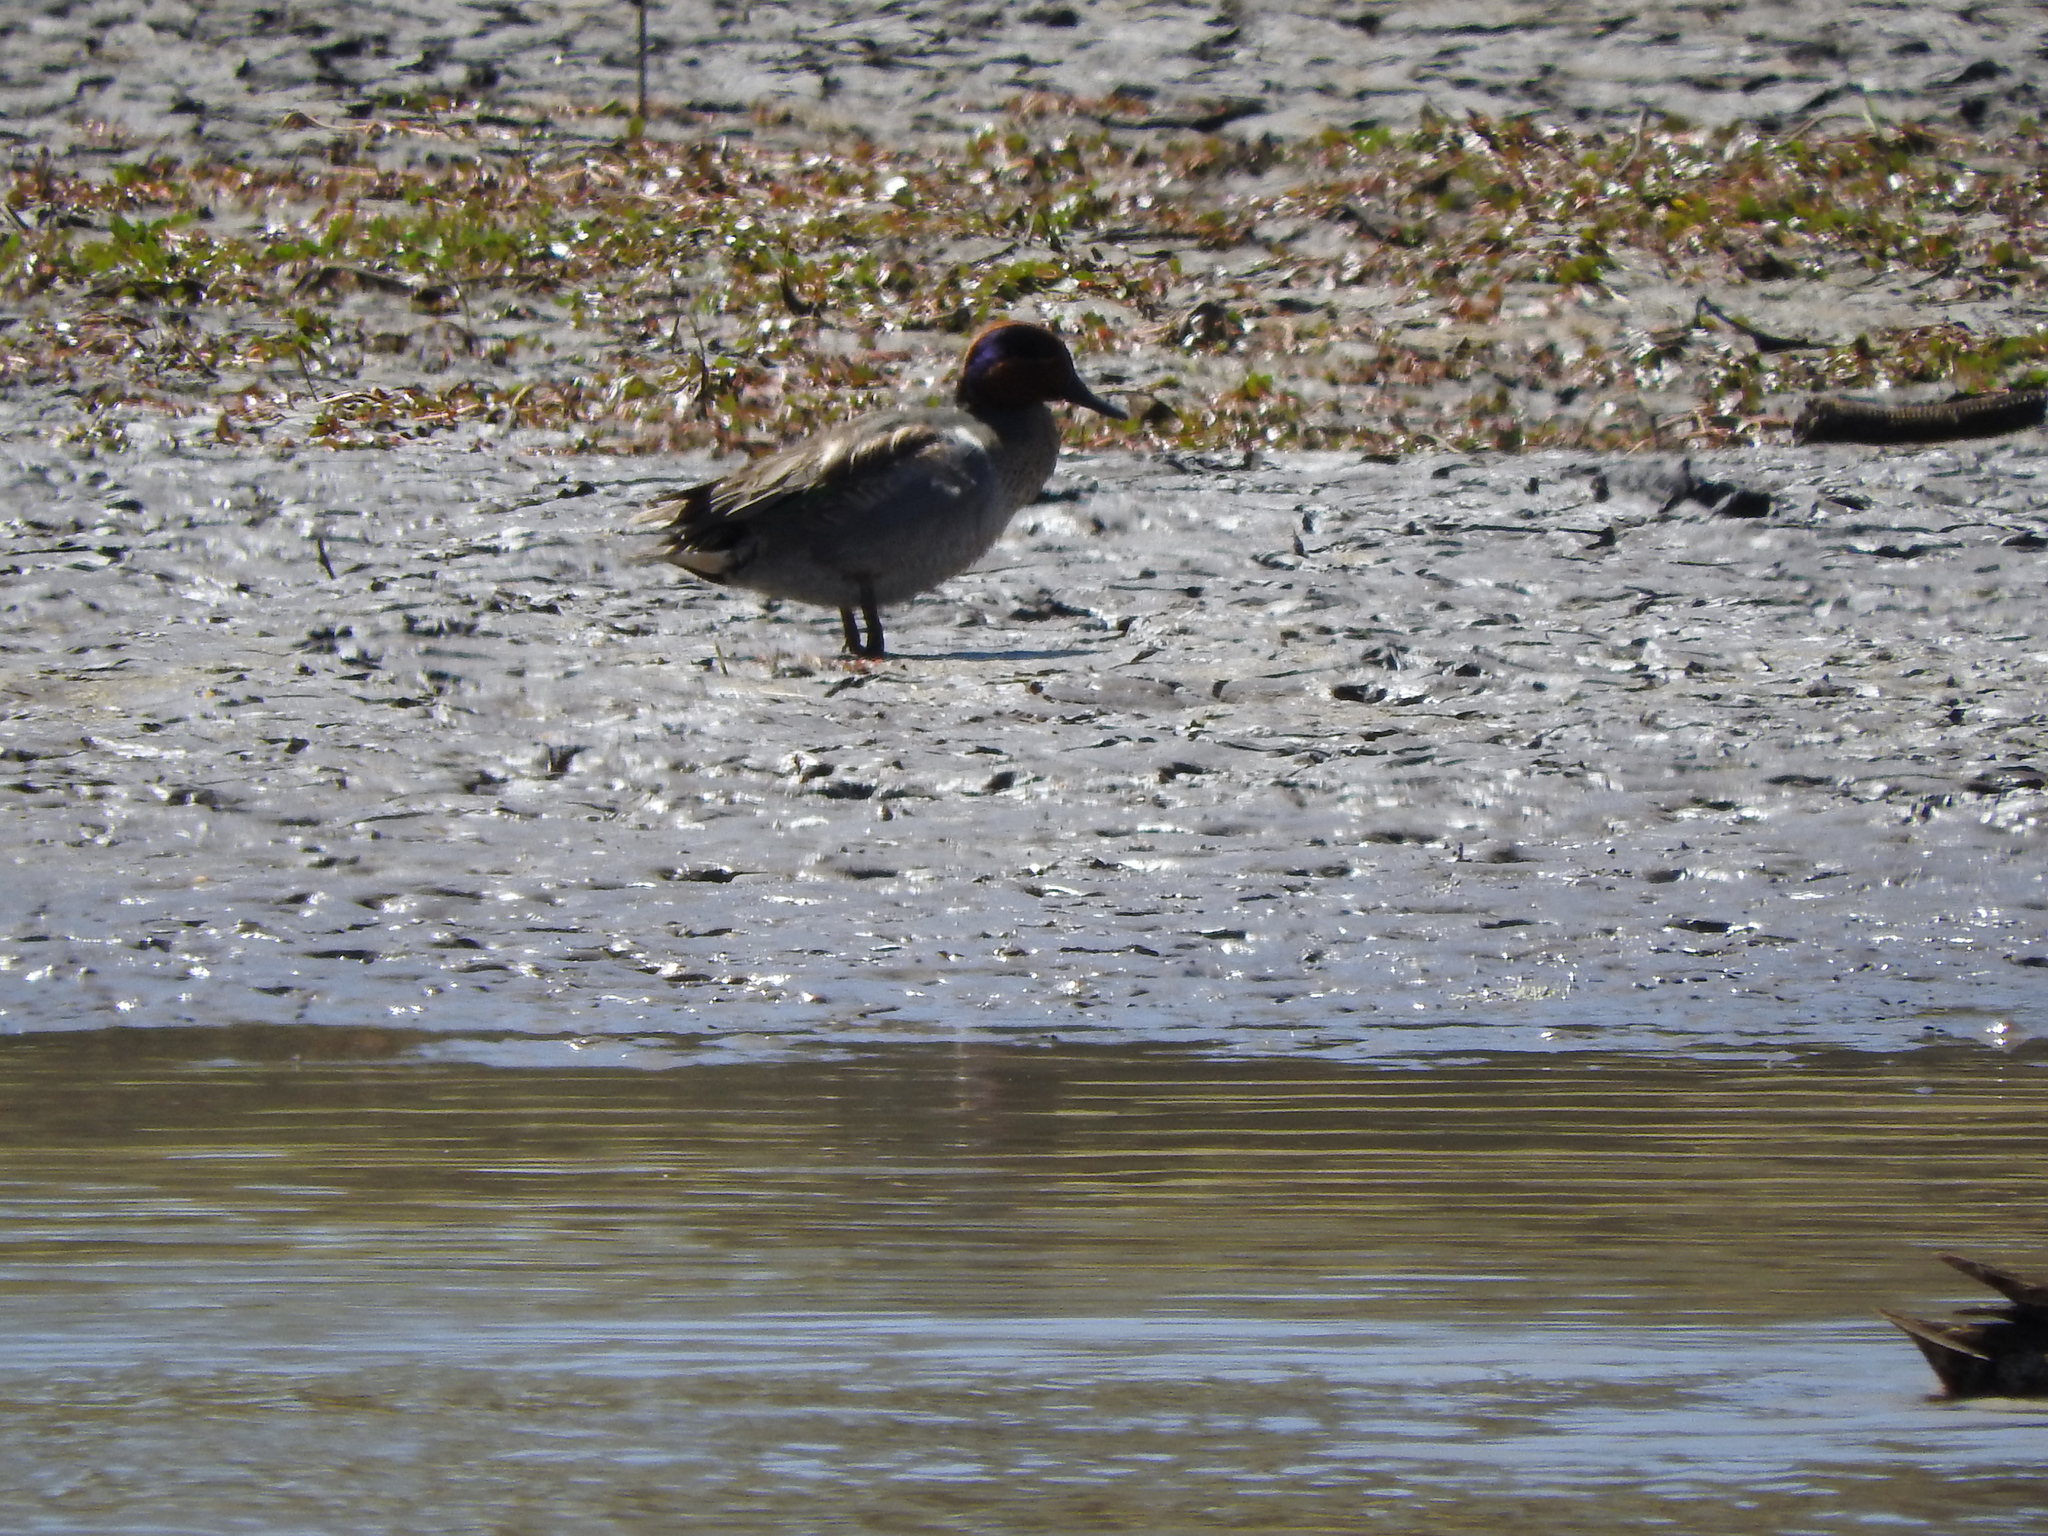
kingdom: Animalia
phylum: Chordata
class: Aves
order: Anseriformes
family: Anatidae
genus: Anas
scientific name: Anas crecca
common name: Eurasian teal
